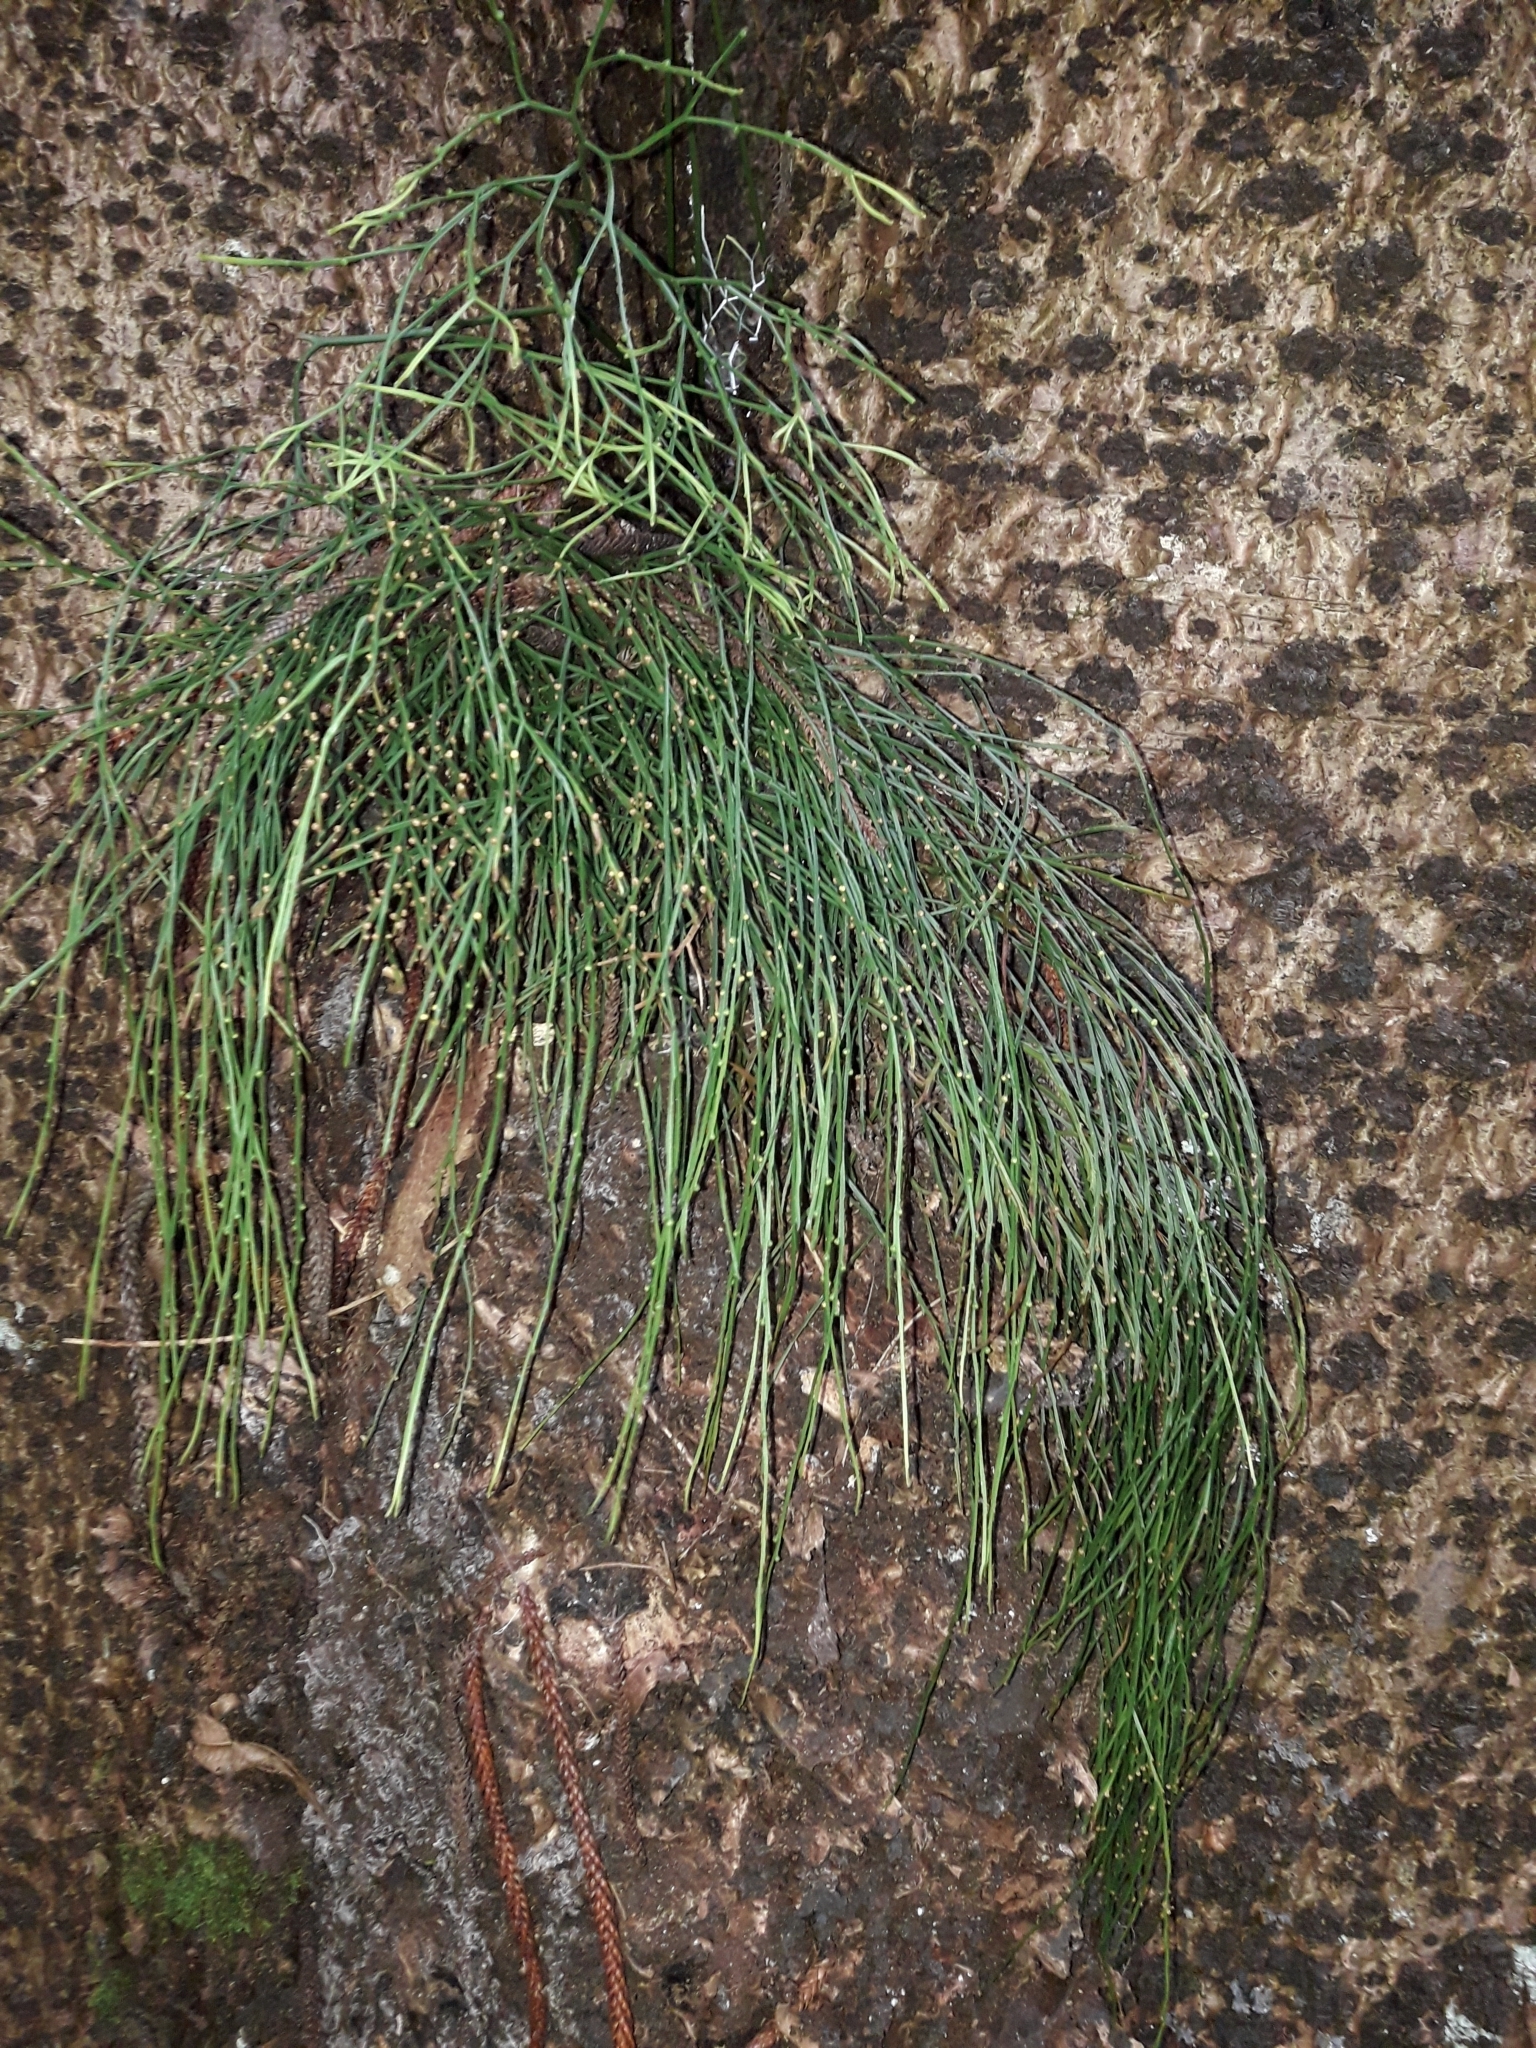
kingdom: Plantae
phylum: Tracheophyta
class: Polypodiopsida
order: Psilotales
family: Psilotaceae
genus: Psilotum
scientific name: Psilotum nudum
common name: Skeleton fork fern
